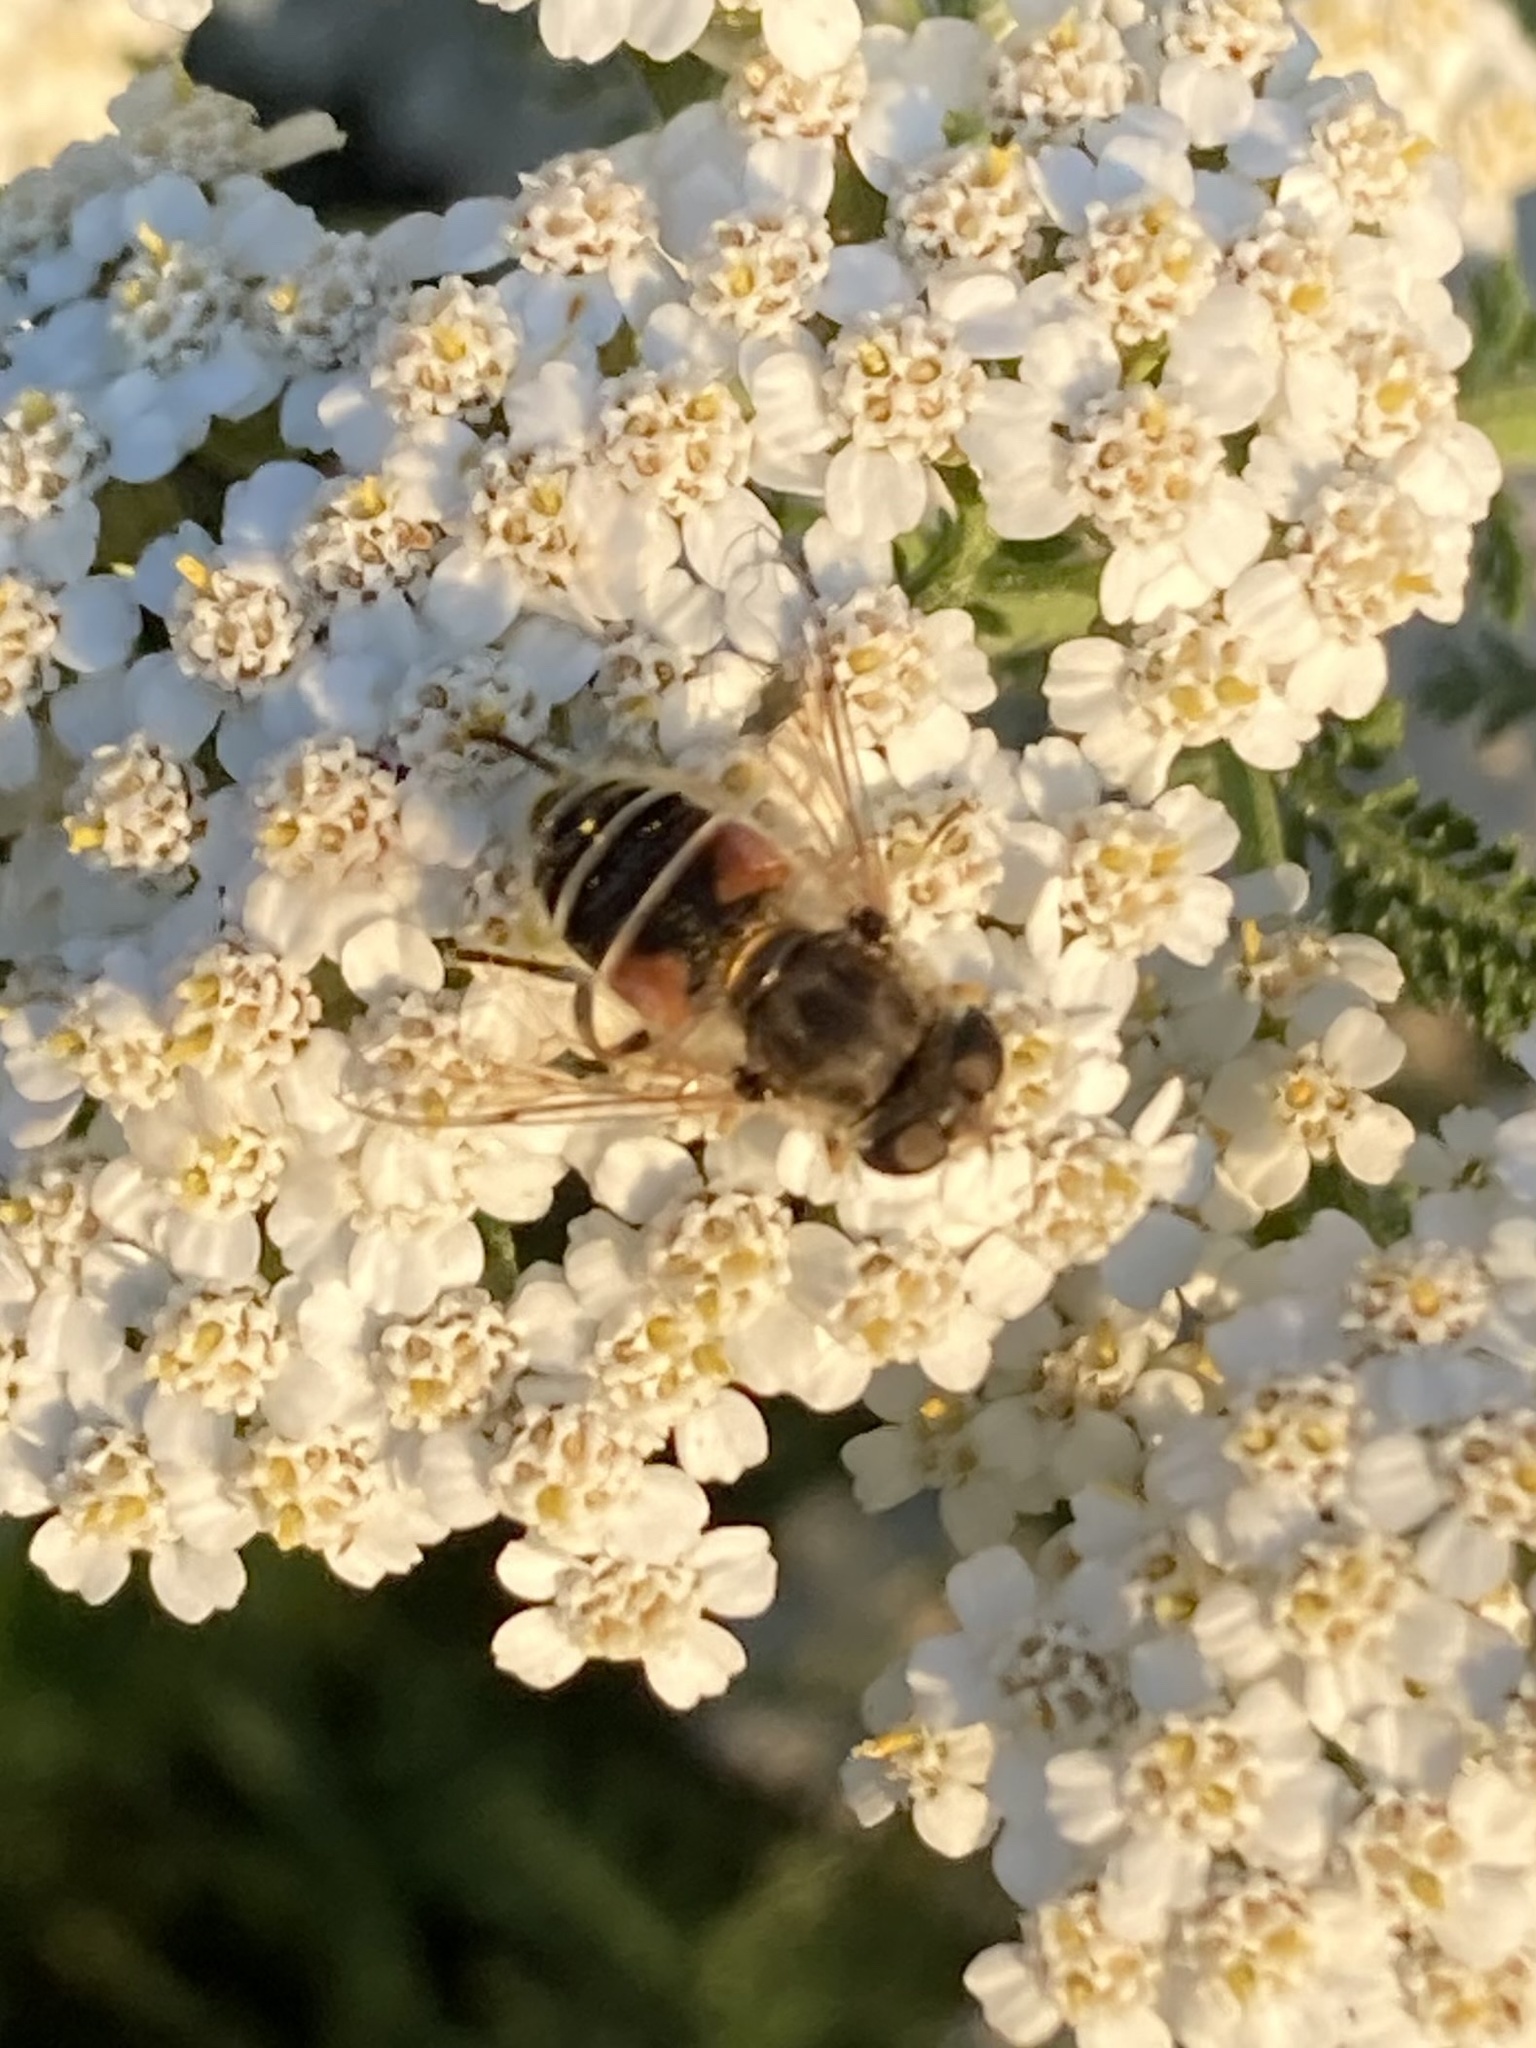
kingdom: Animalia
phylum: Arthropoda
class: Insecta
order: Diptera
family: Syrphidae
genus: Eristalis
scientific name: Eristalis arbustorum
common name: Hover fly
